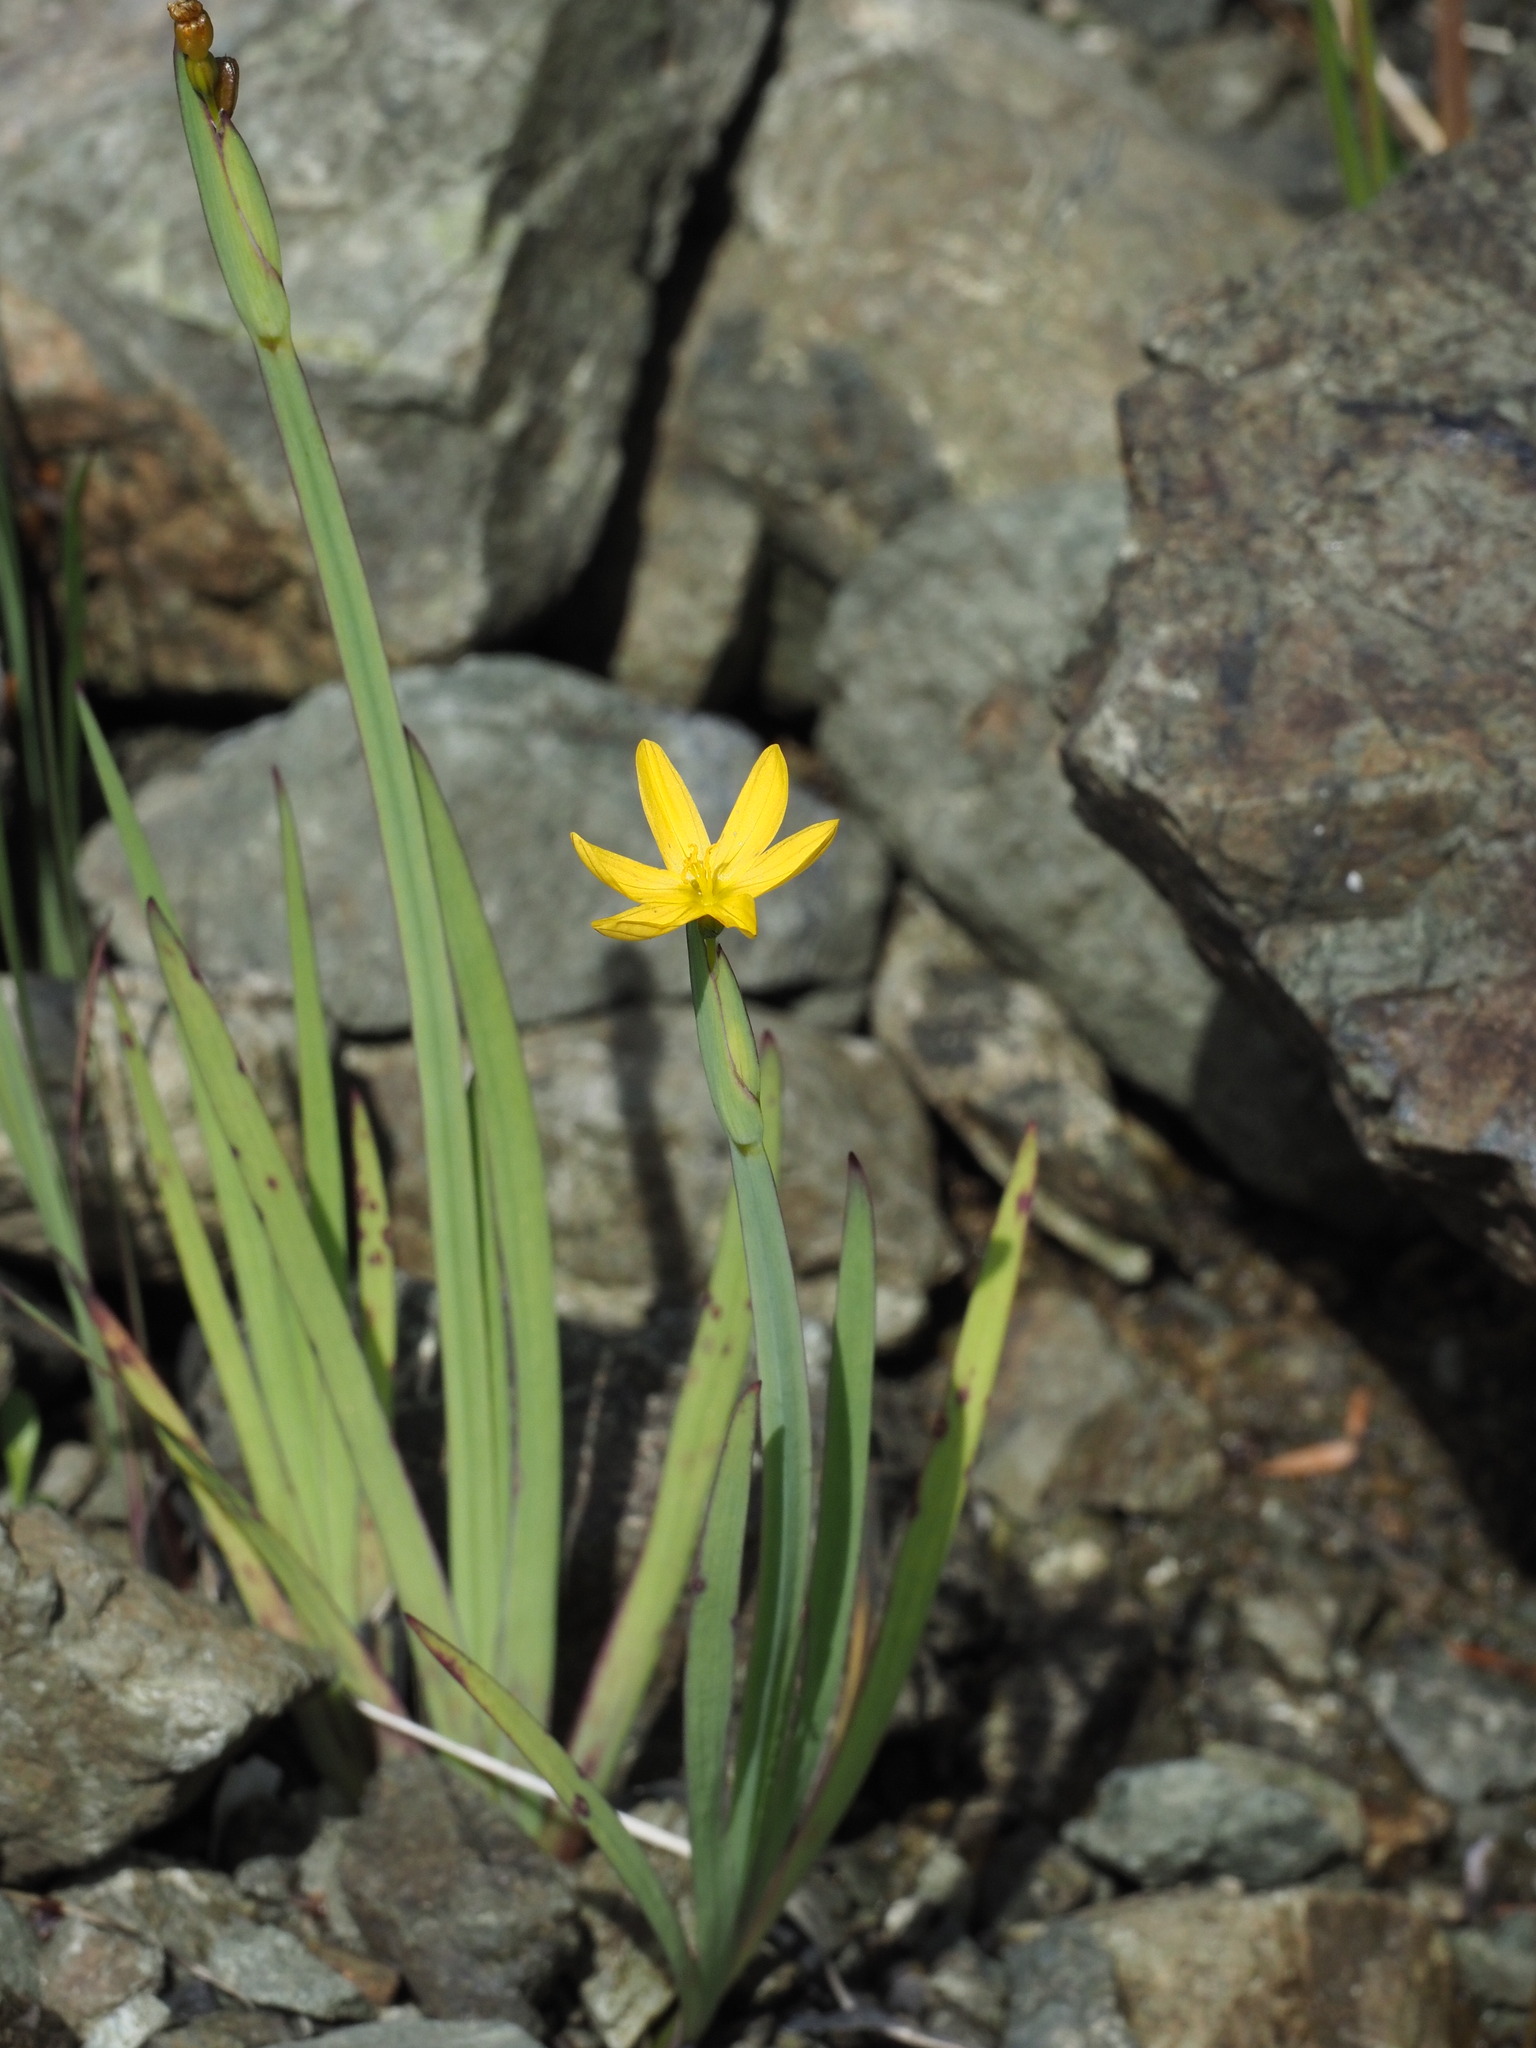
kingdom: Plantae
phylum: Tracheophyta
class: Liliopsida
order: Asparagales
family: Iridaceae
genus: Sisyrinchium
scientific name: Sisyrinchium californicum
